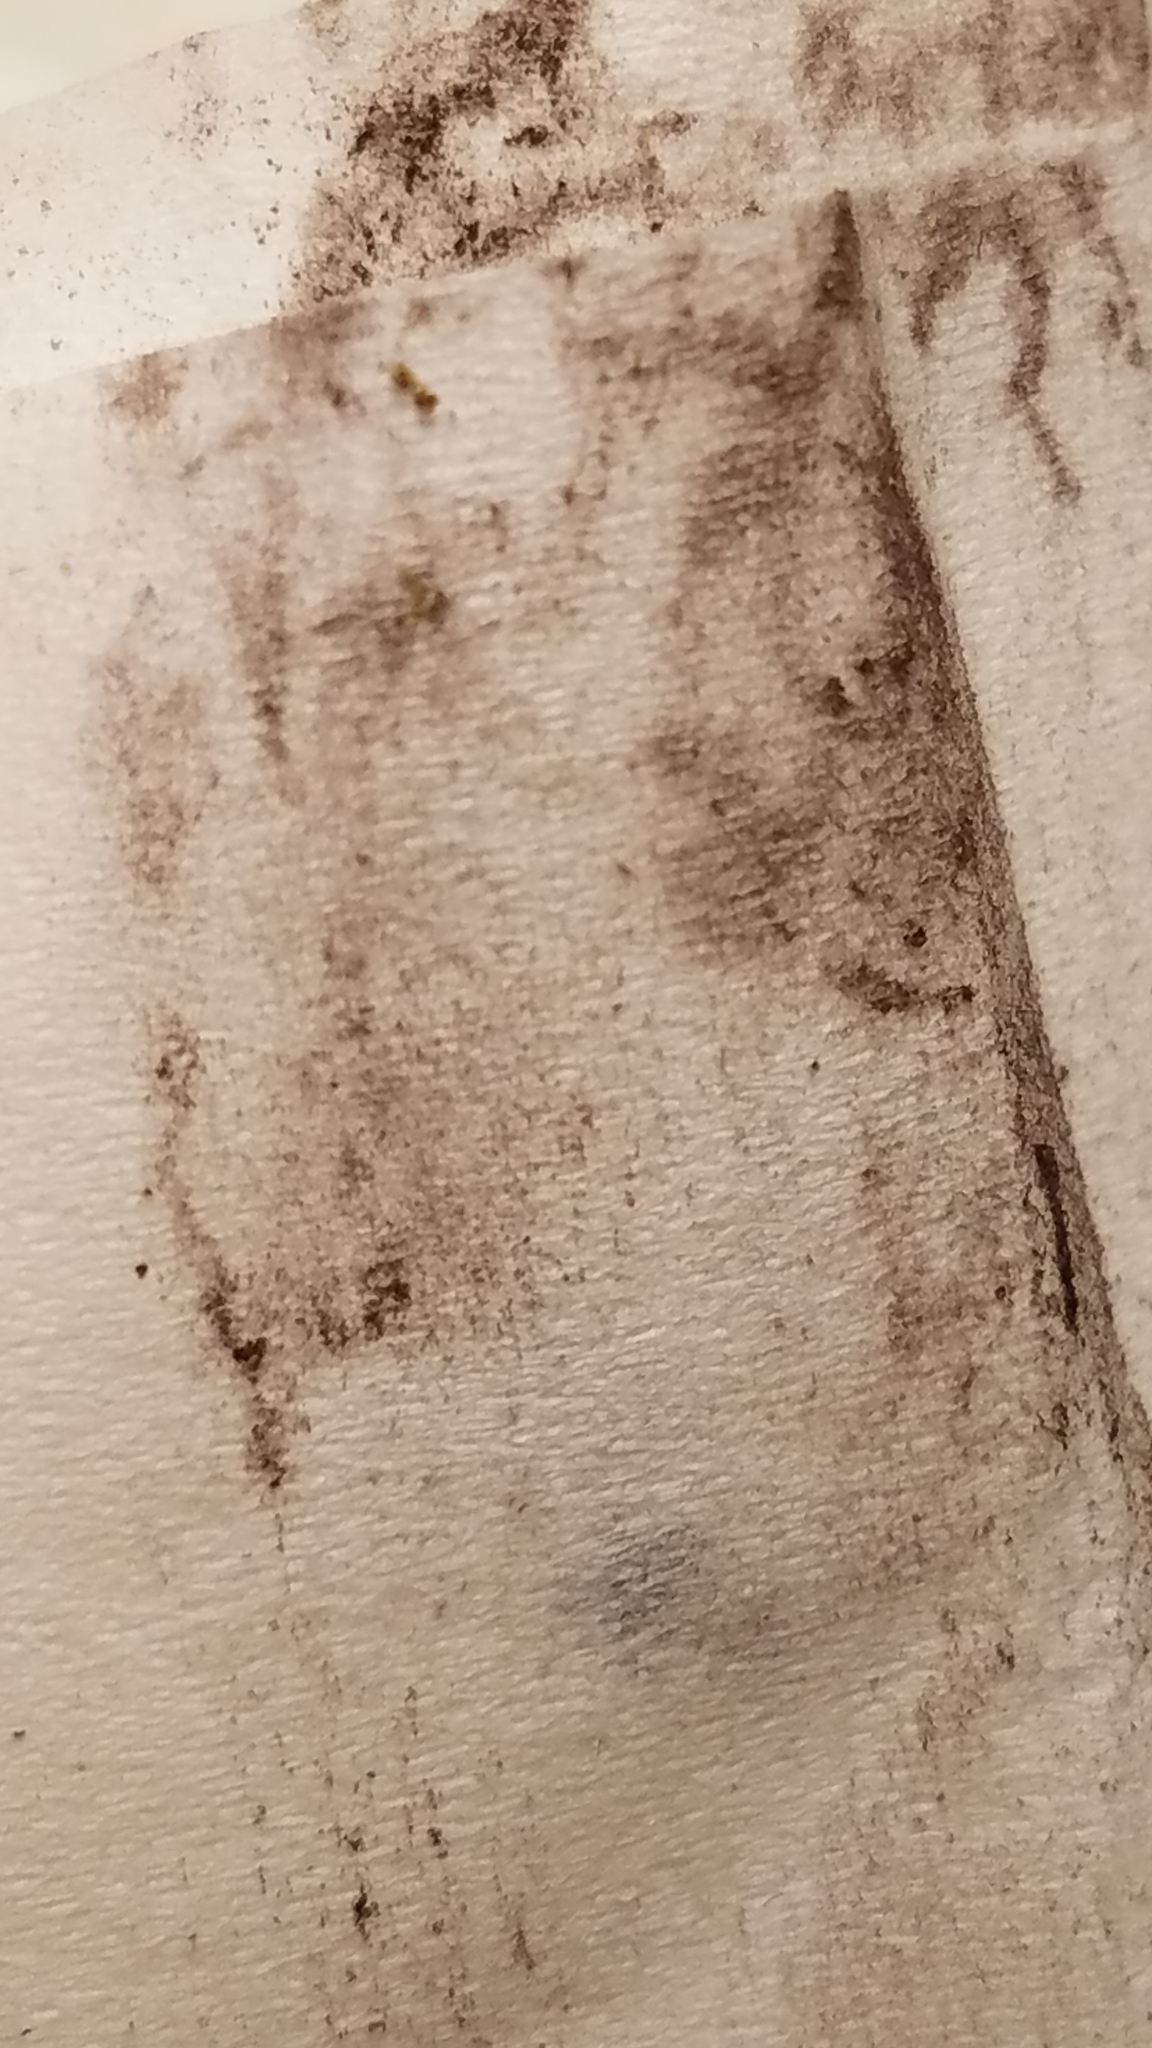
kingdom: Protozoa
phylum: Mycetozoa
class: Myxomycetes
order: Physarales
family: Physaraceae
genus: Physarum
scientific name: Physarum polycephalum
